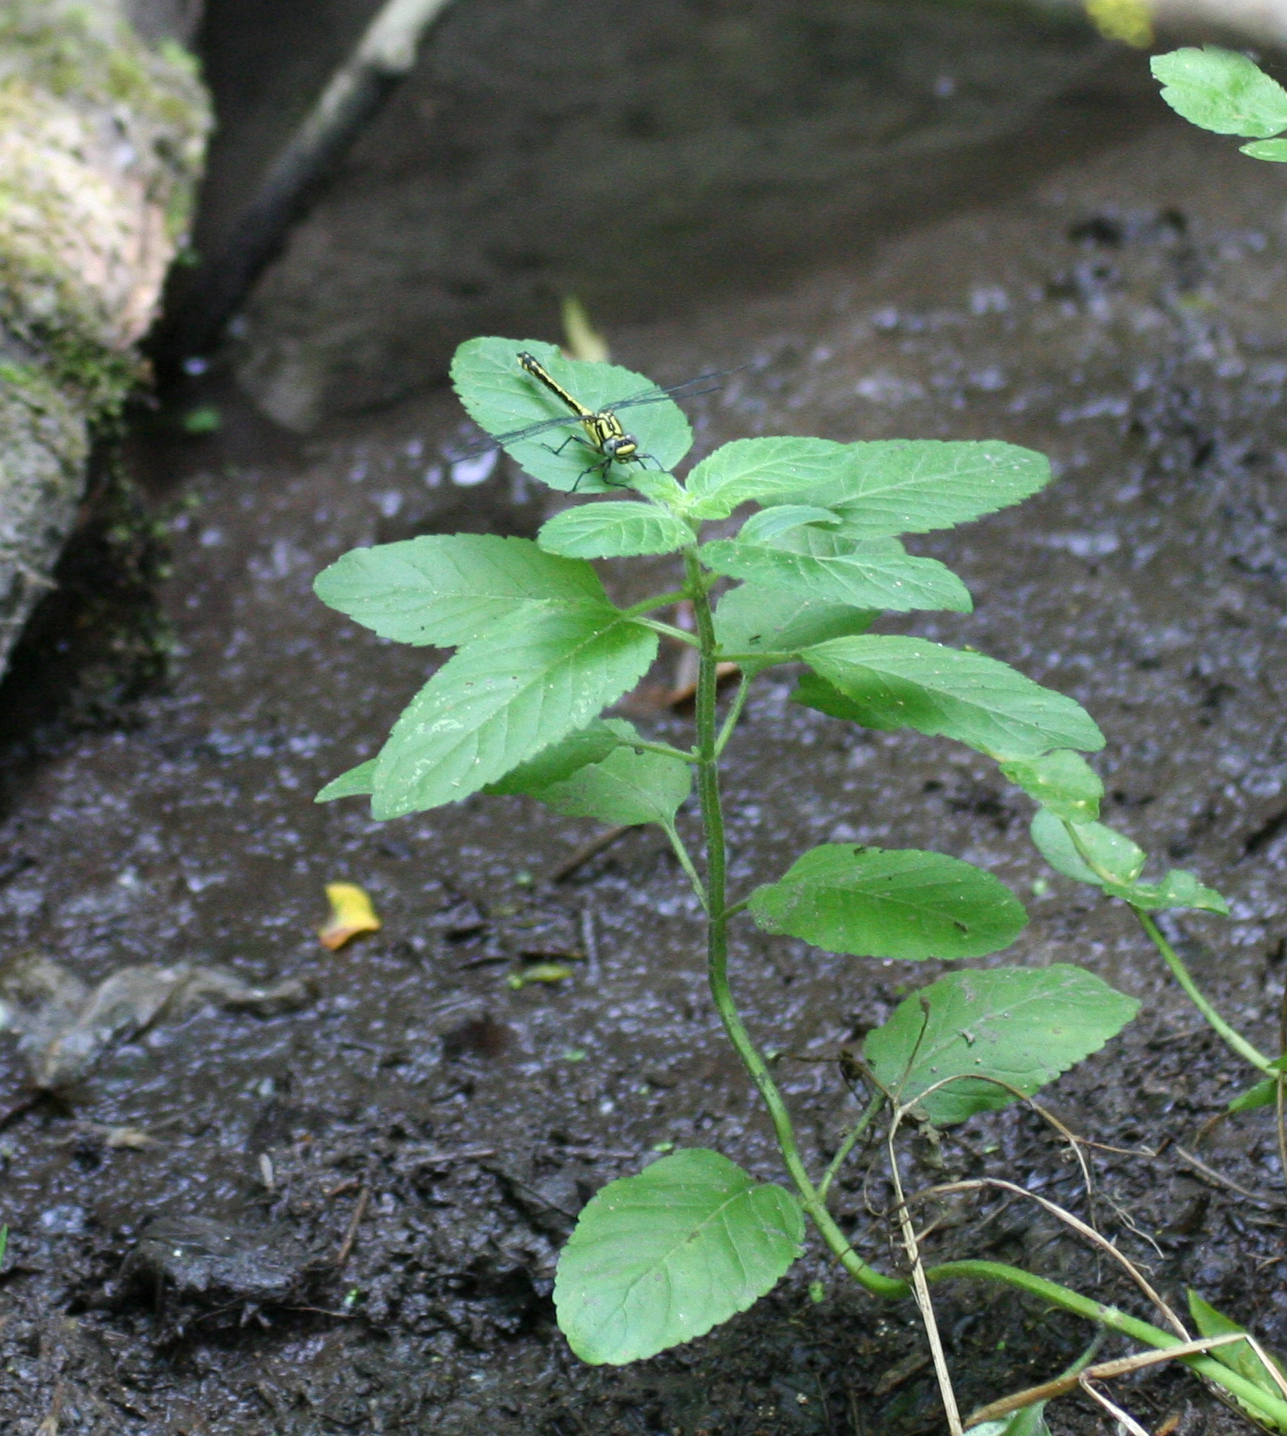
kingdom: Animalia
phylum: Arthropoda
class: Insecta
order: Odonata
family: Gomphidae
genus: Gomphus
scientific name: Gomphus schneiderii
